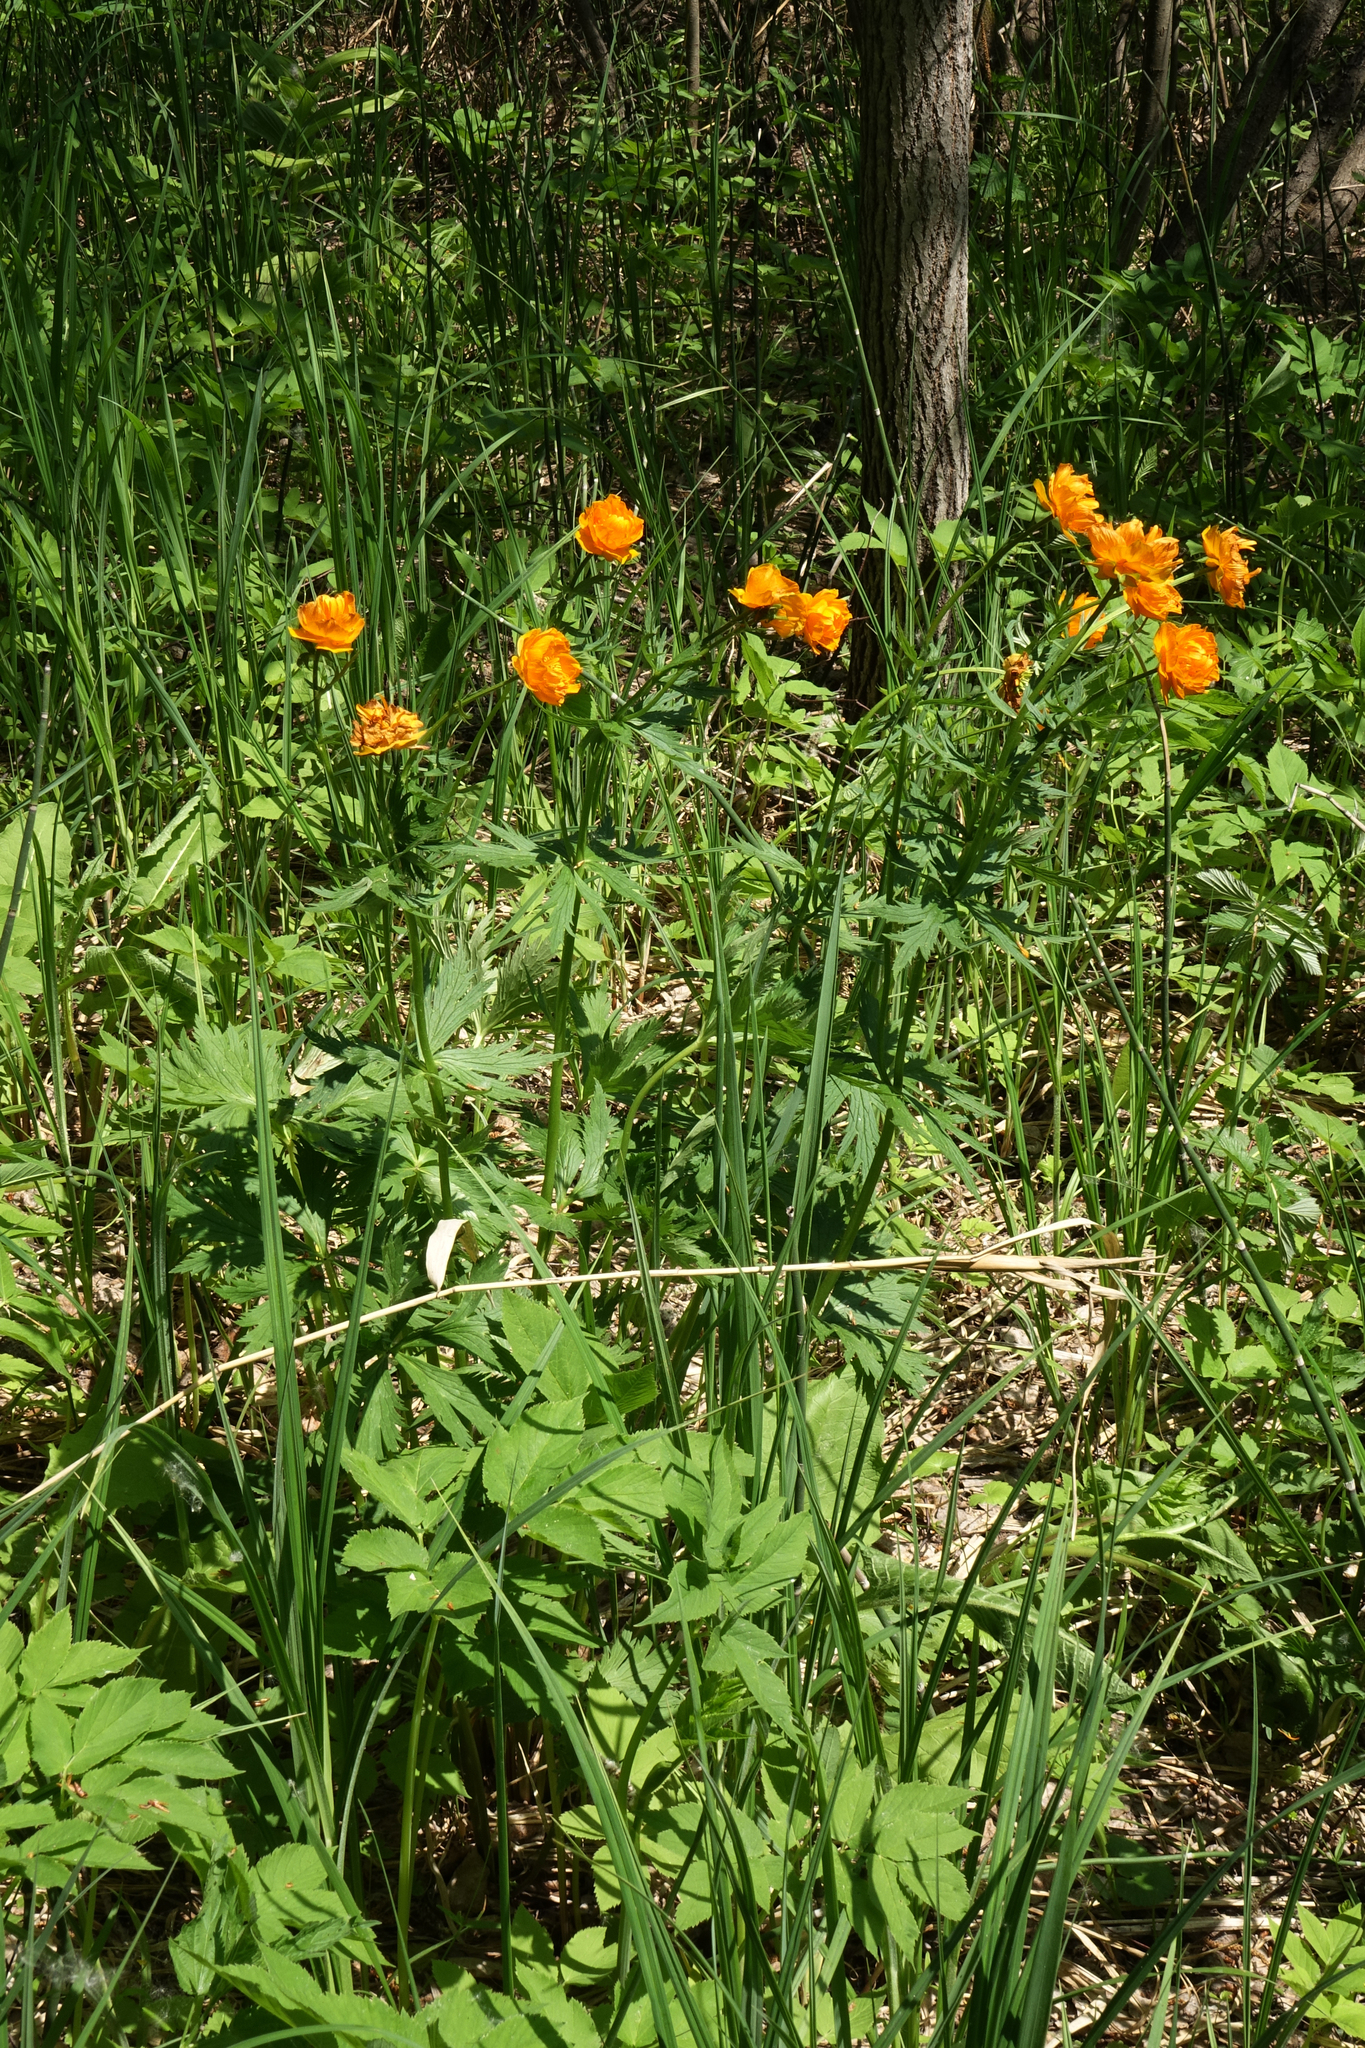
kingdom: Plantae
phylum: Tracheophyta
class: Magnoliopsida
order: Ranunculales
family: Ranunculaceae
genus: Trollius
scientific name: Trollius asiaticus
